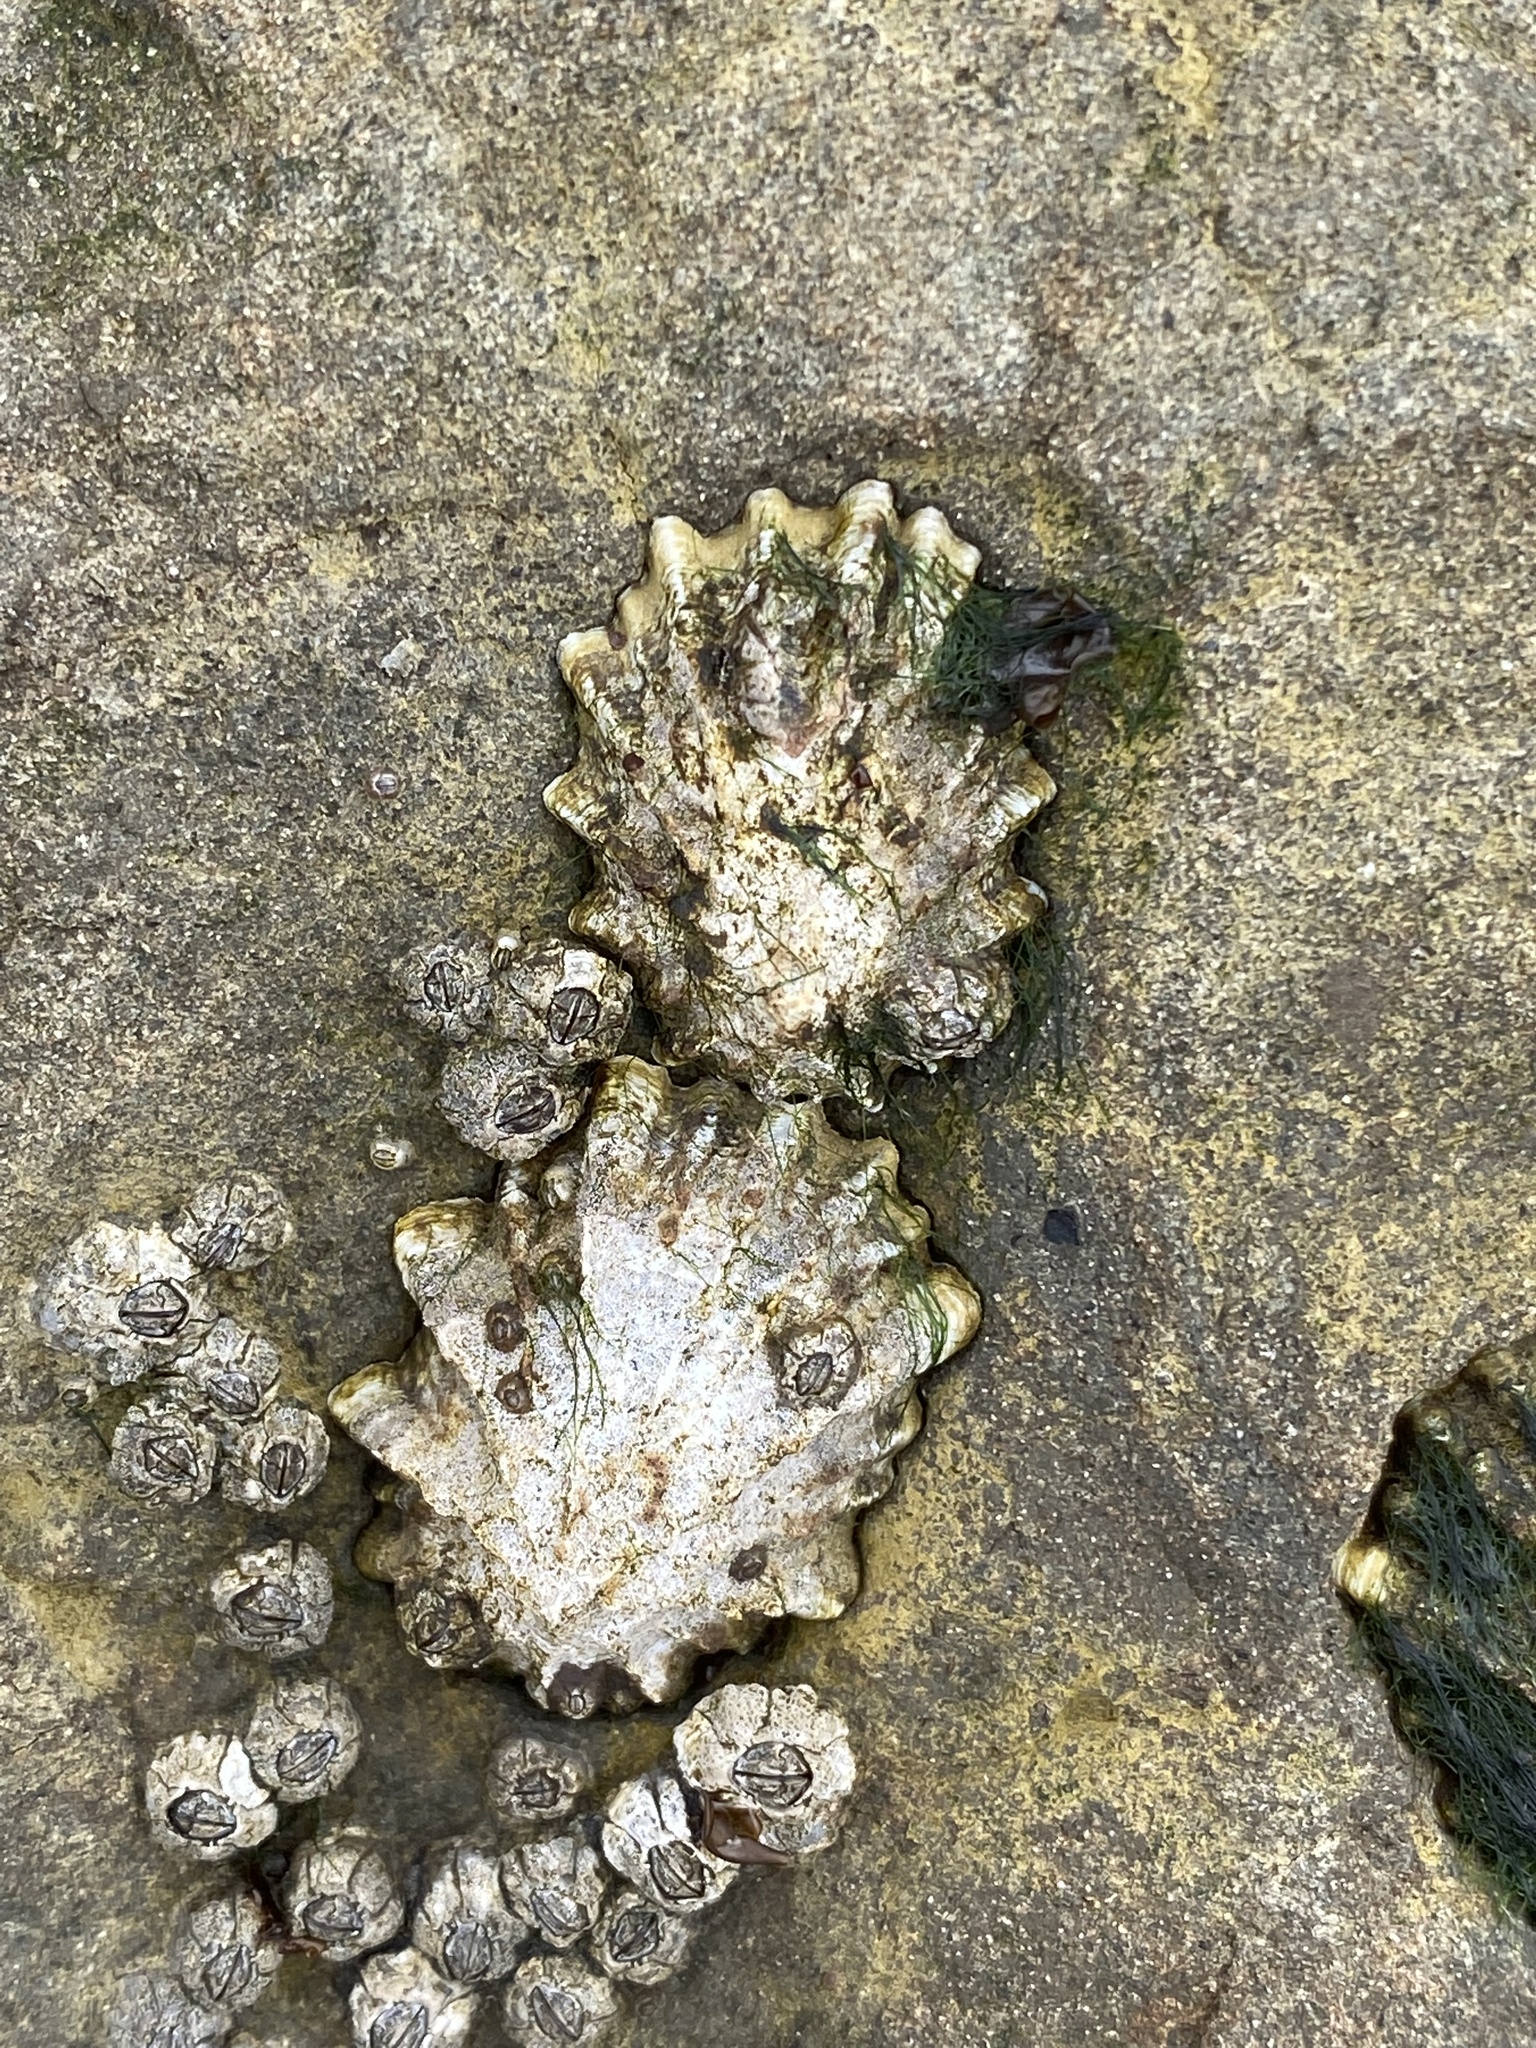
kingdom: Animalia
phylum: Mollusca
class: Gastropoda
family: Lottiidae
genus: Lottia
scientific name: Lottia scabra
